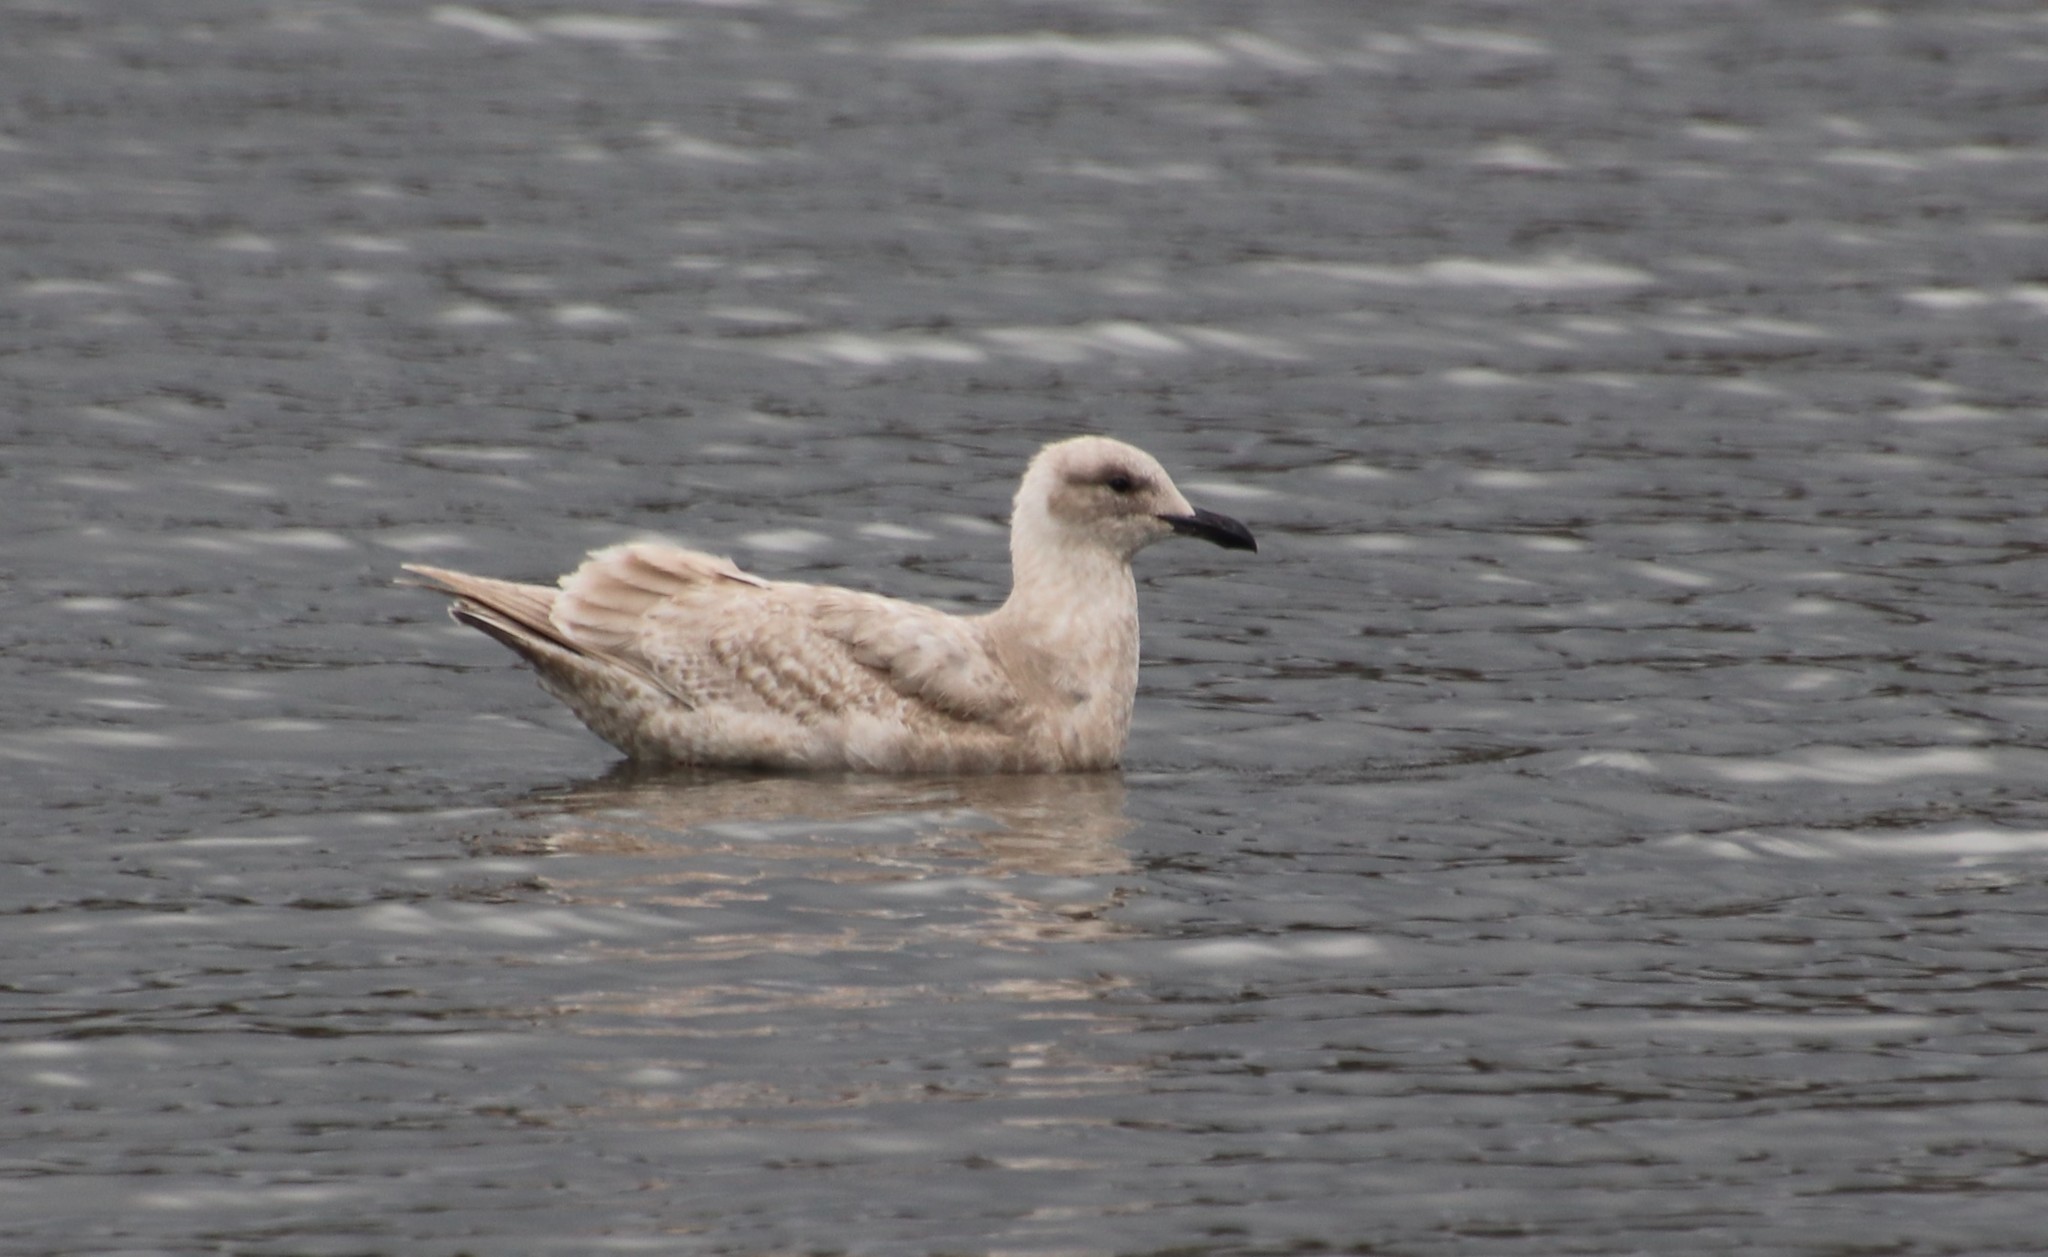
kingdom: Animalia
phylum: Chordata
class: Aves
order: Charadriiformes
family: Laridae
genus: Larus
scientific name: Larus glaucescens
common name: Glaucous-winged gull
